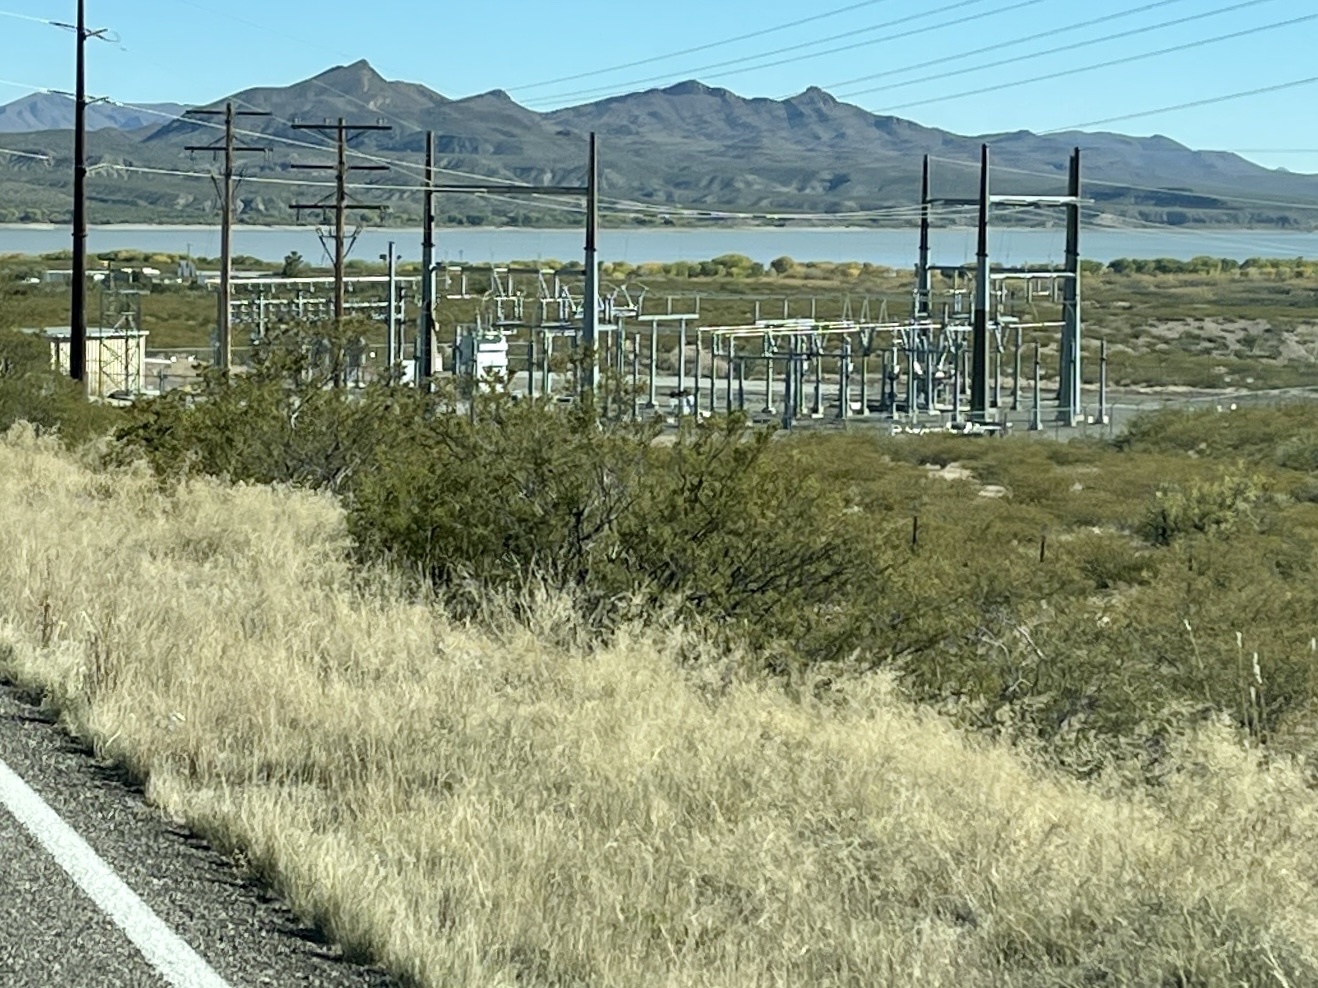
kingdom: Plantae
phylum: Tracheophyta
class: Magnoliopsida
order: Zygophyllales
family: Zygophyllaceae
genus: Larrea
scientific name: Larrea tridentata
